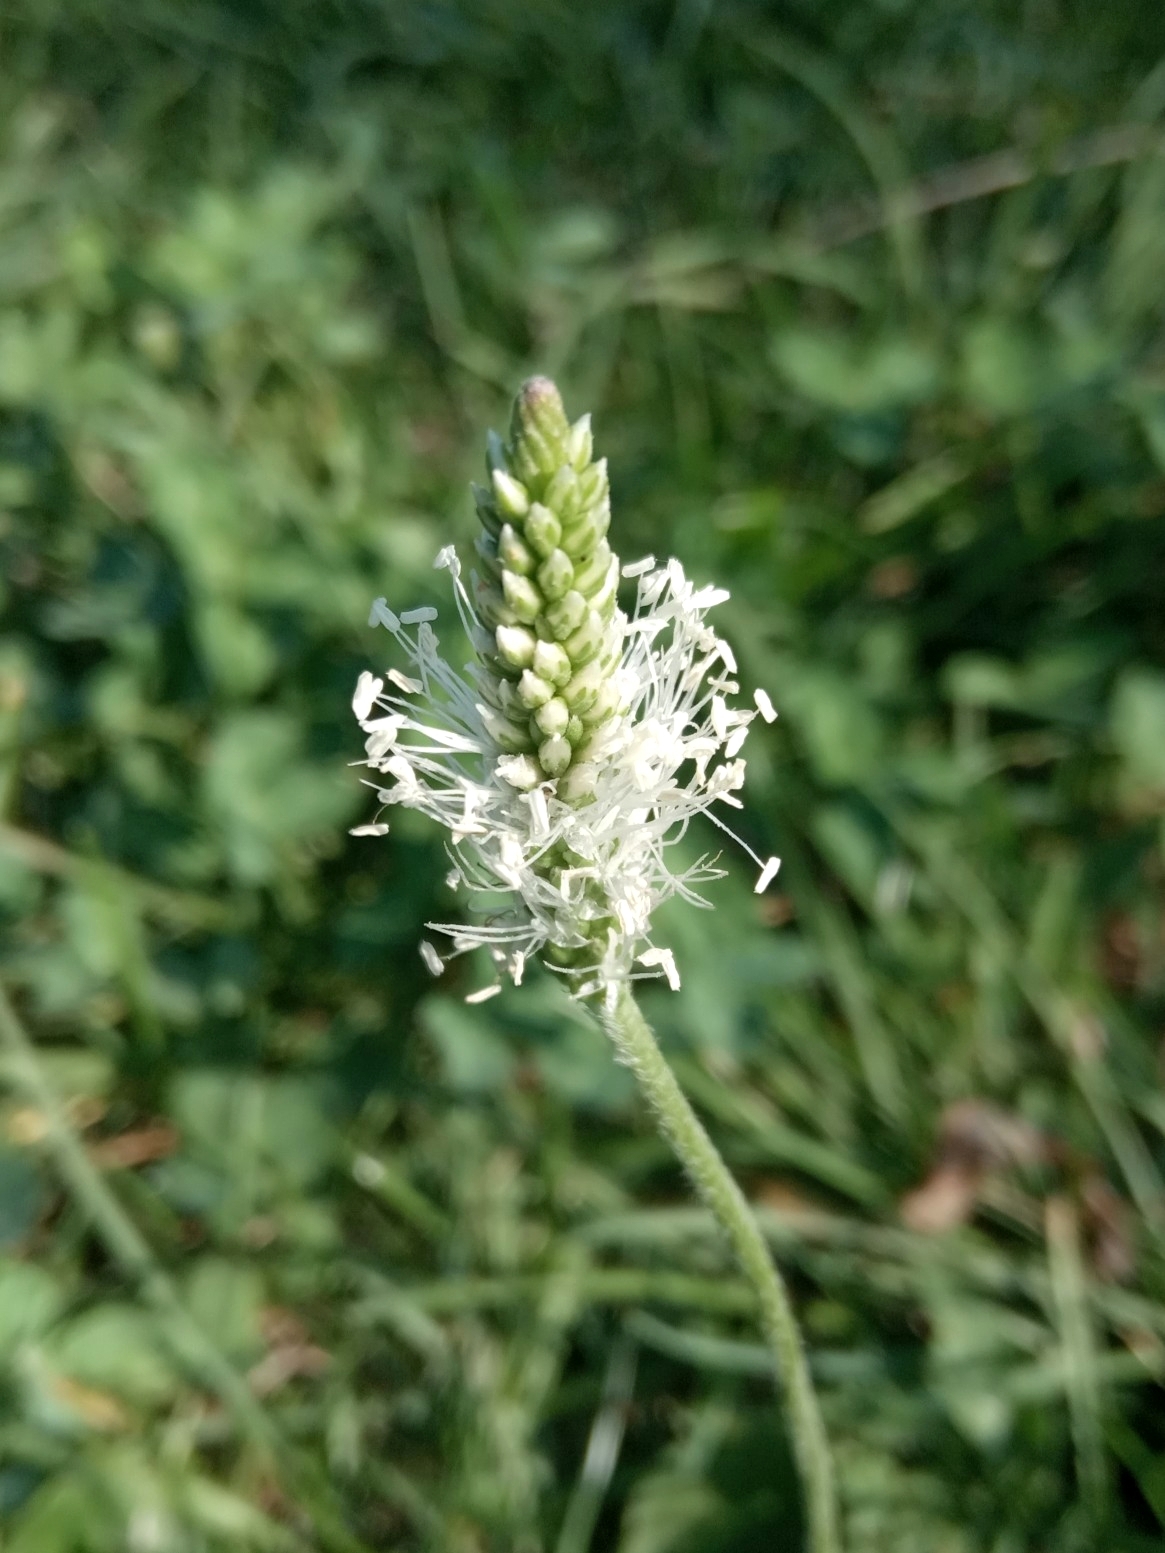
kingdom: Plantae
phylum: Tracheophyta
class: Magnoliopsida
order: Lamiales
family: Plantaginaceae
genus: Plantago
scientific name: Plantago media
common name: Hoary plantain
